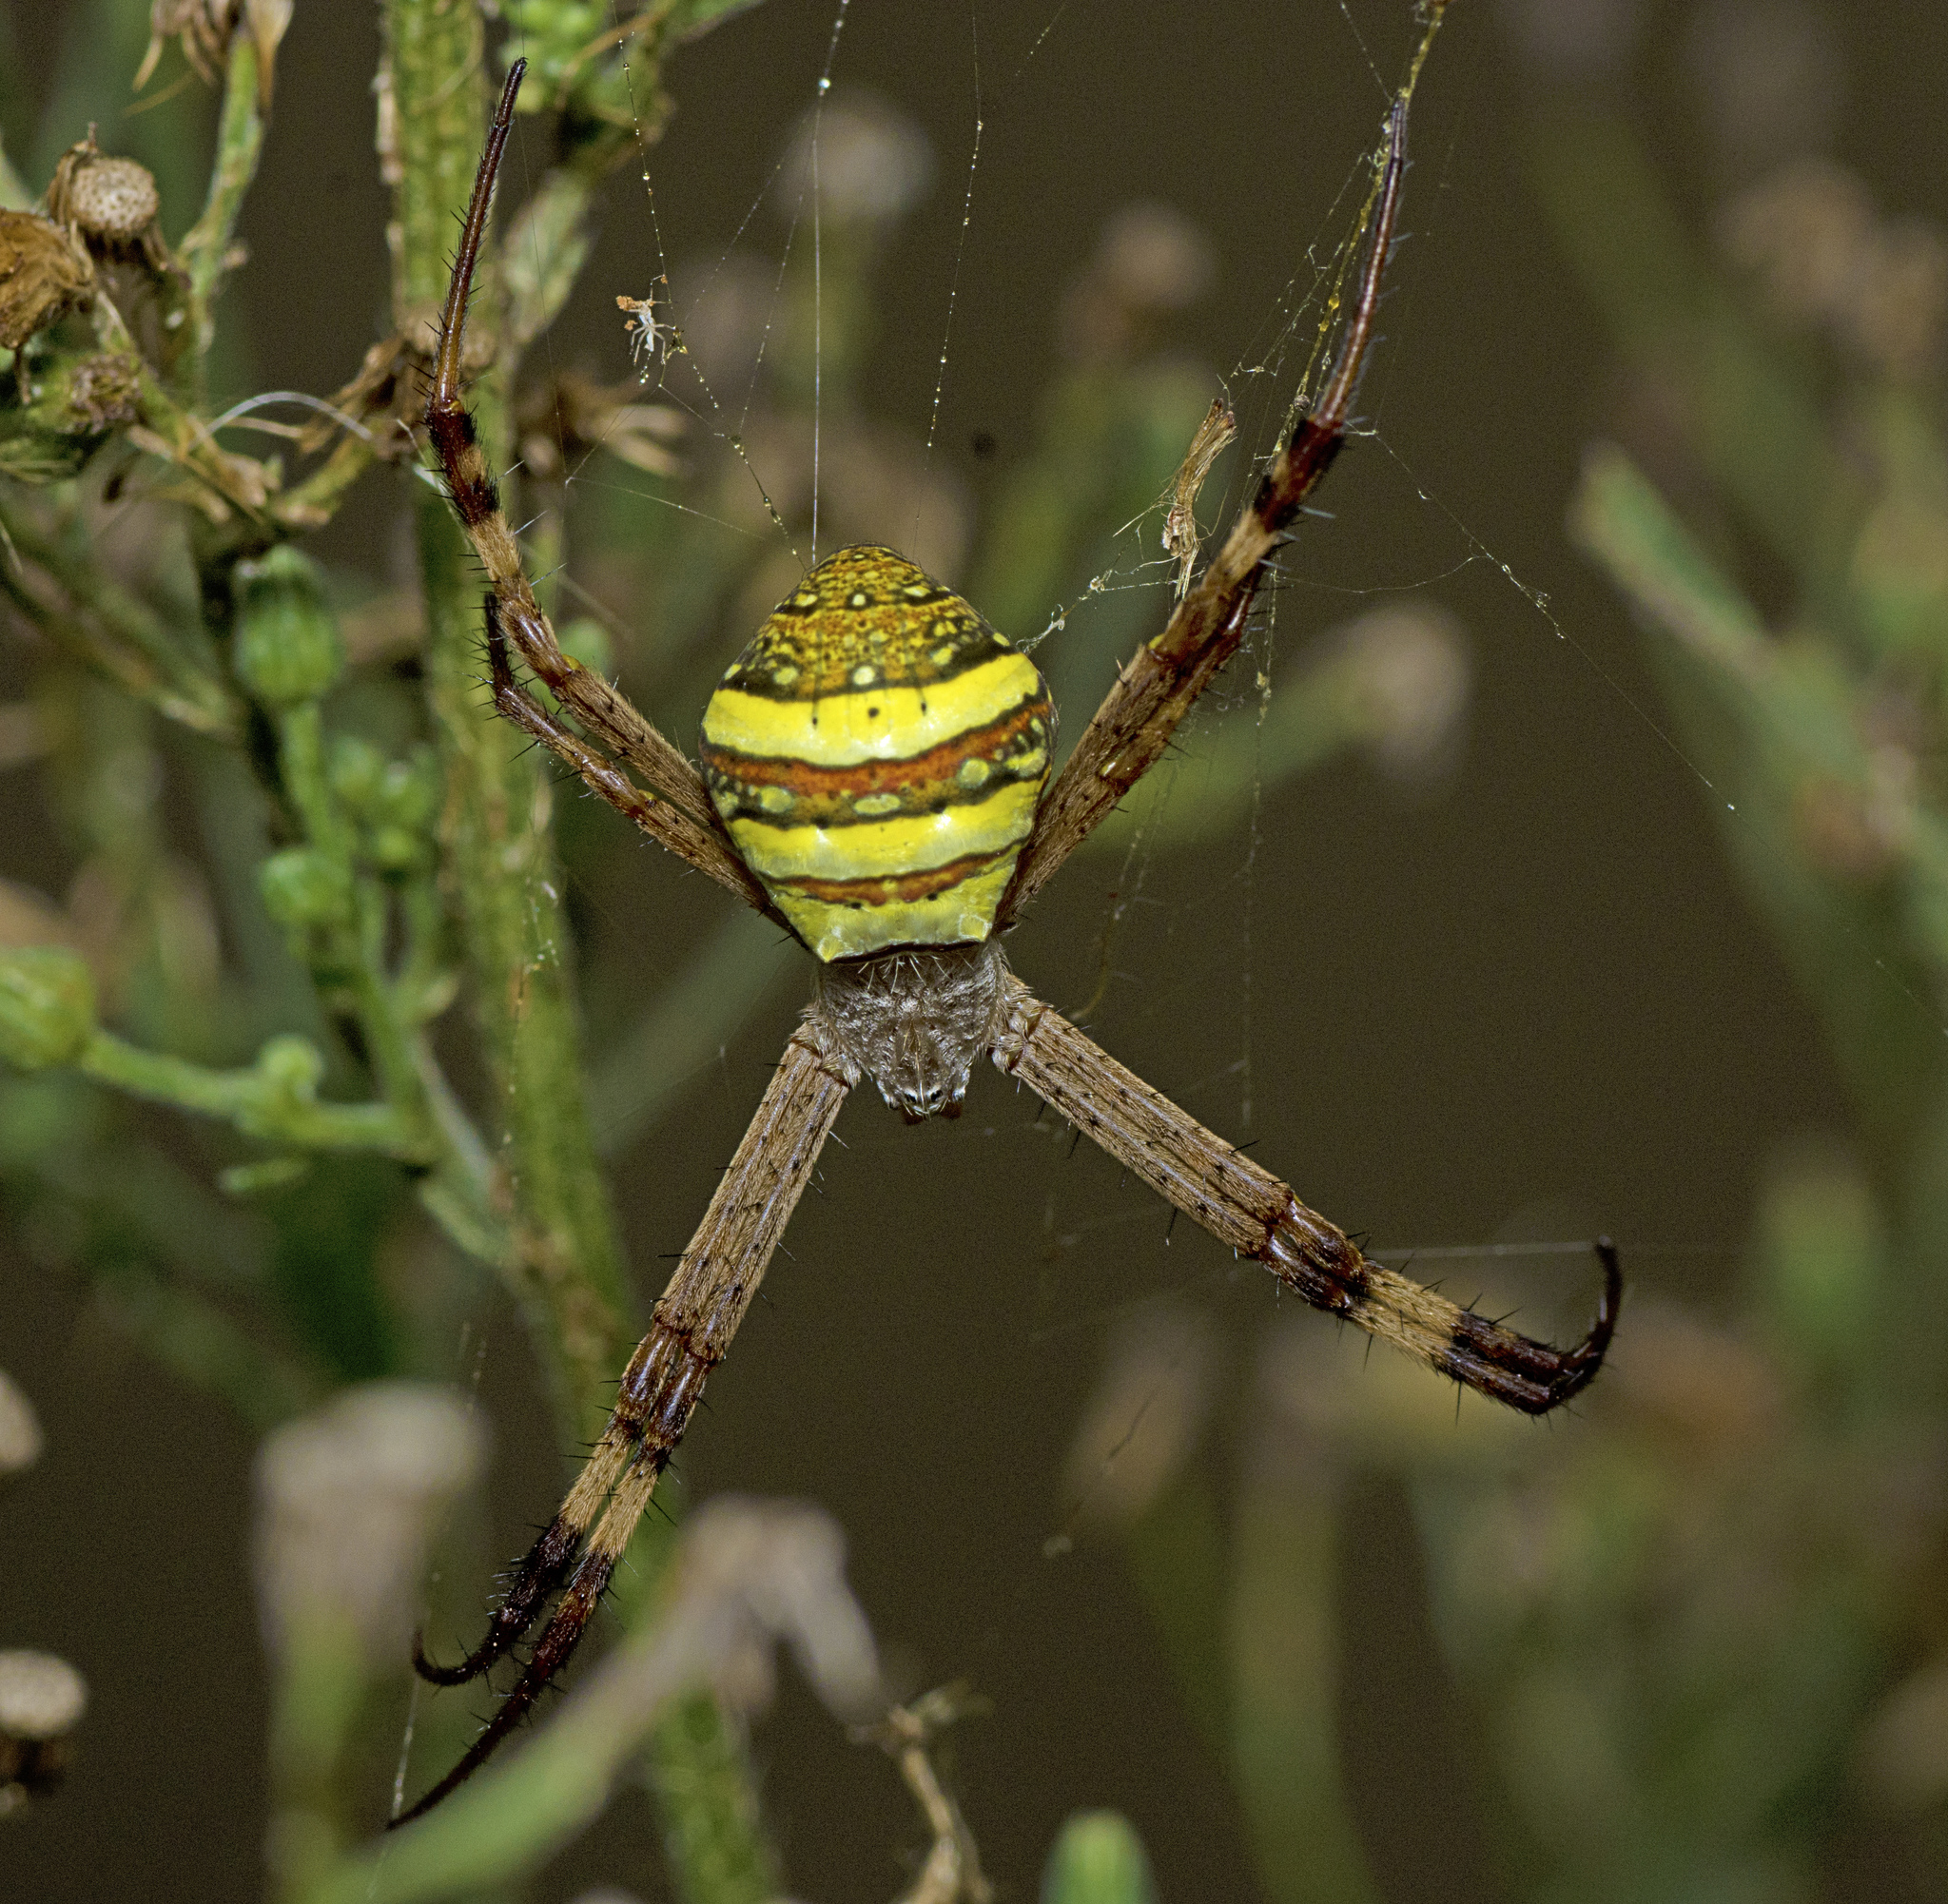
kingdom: Animalia
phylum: Arthropoda
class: Arachnida
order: Araneae
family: Araneidae
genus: Argiope
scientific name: Argiope keyserlingi
